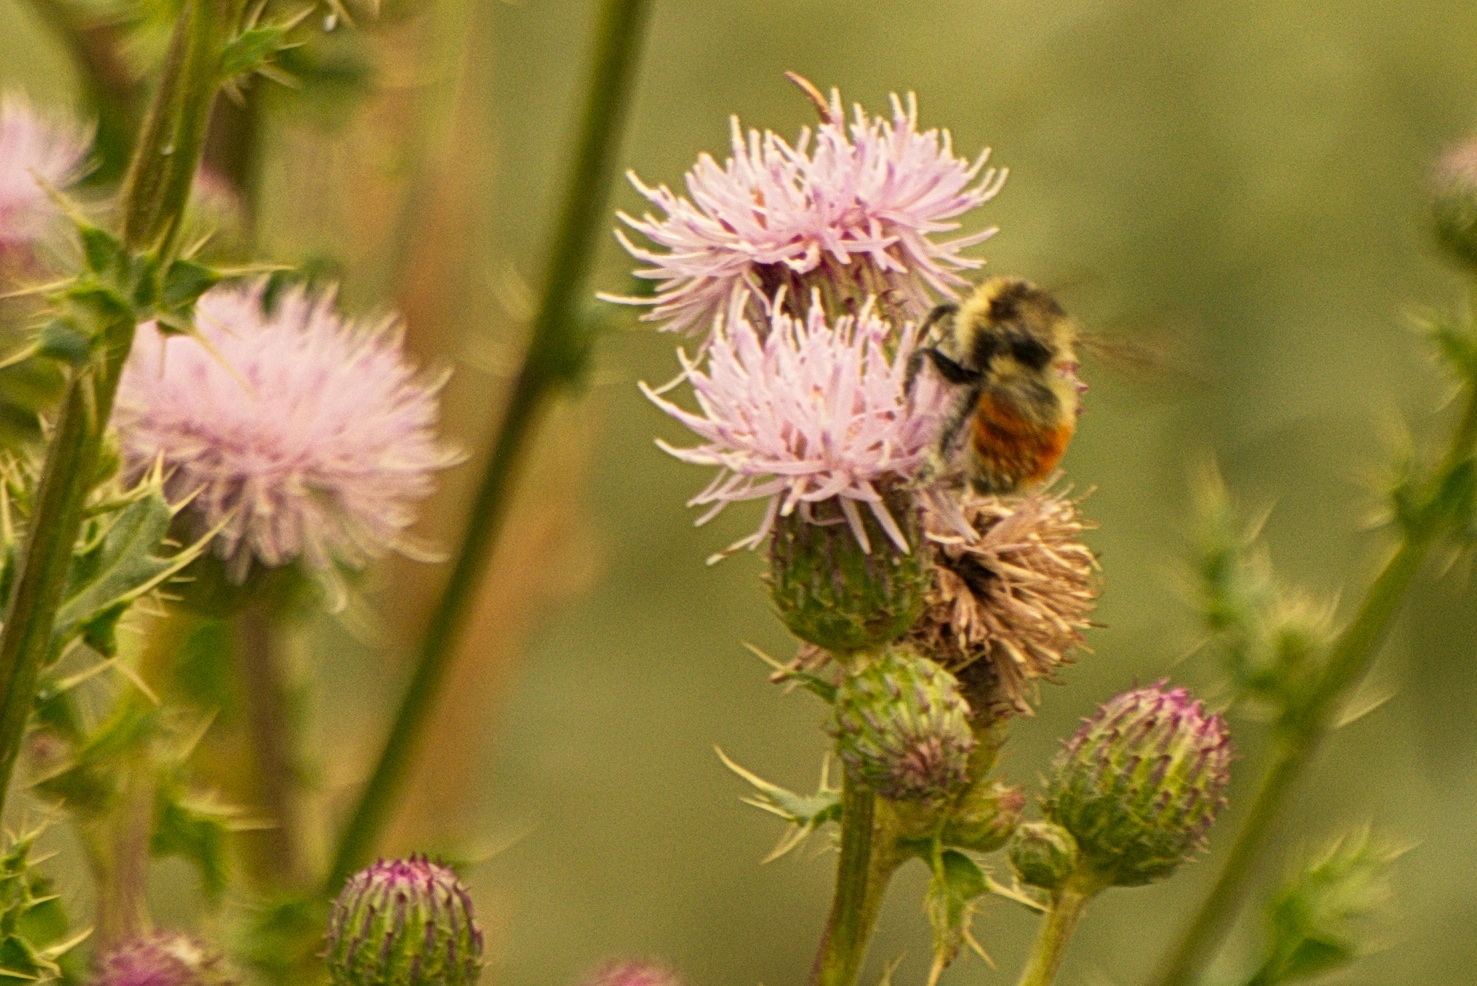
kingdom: Animalia
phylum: Arthropoda
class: Insecta
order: Hymenoptera
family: Apidae
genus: Bombus
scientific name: Bombus rufocinctus
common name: Red-belted bumble bee
